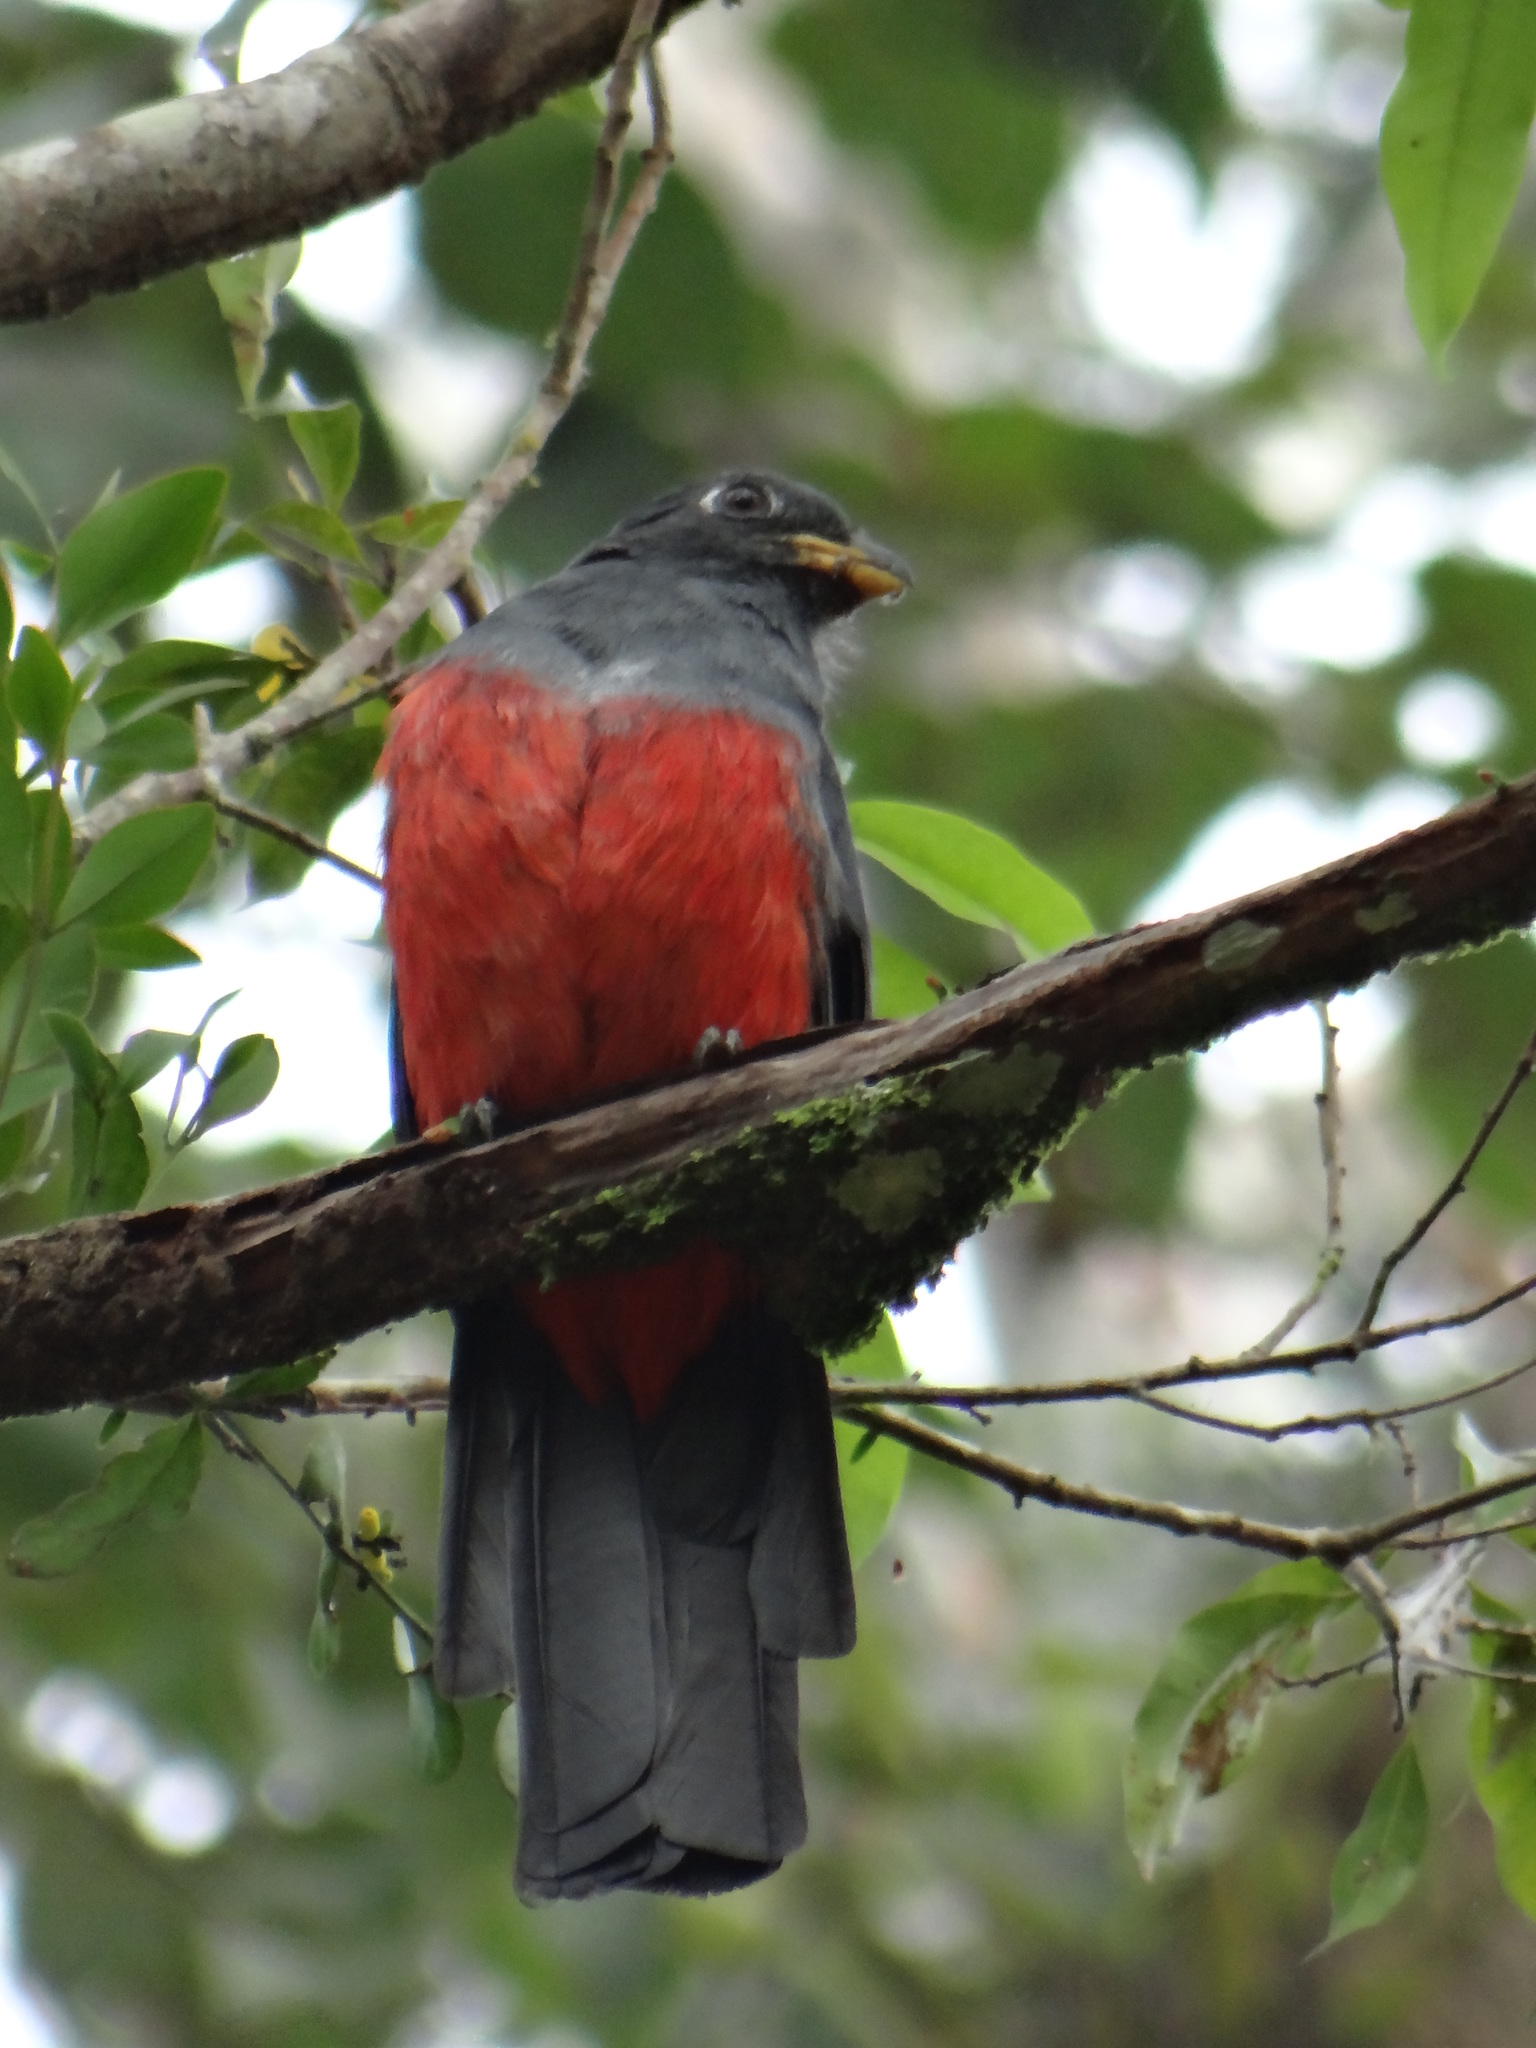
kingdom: Animalia
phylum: Chordata
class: Aves
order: Trogoniformes
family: Trogonidae
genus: Trogon
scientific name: Trogon melanurus
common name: Black-tailed trogon
